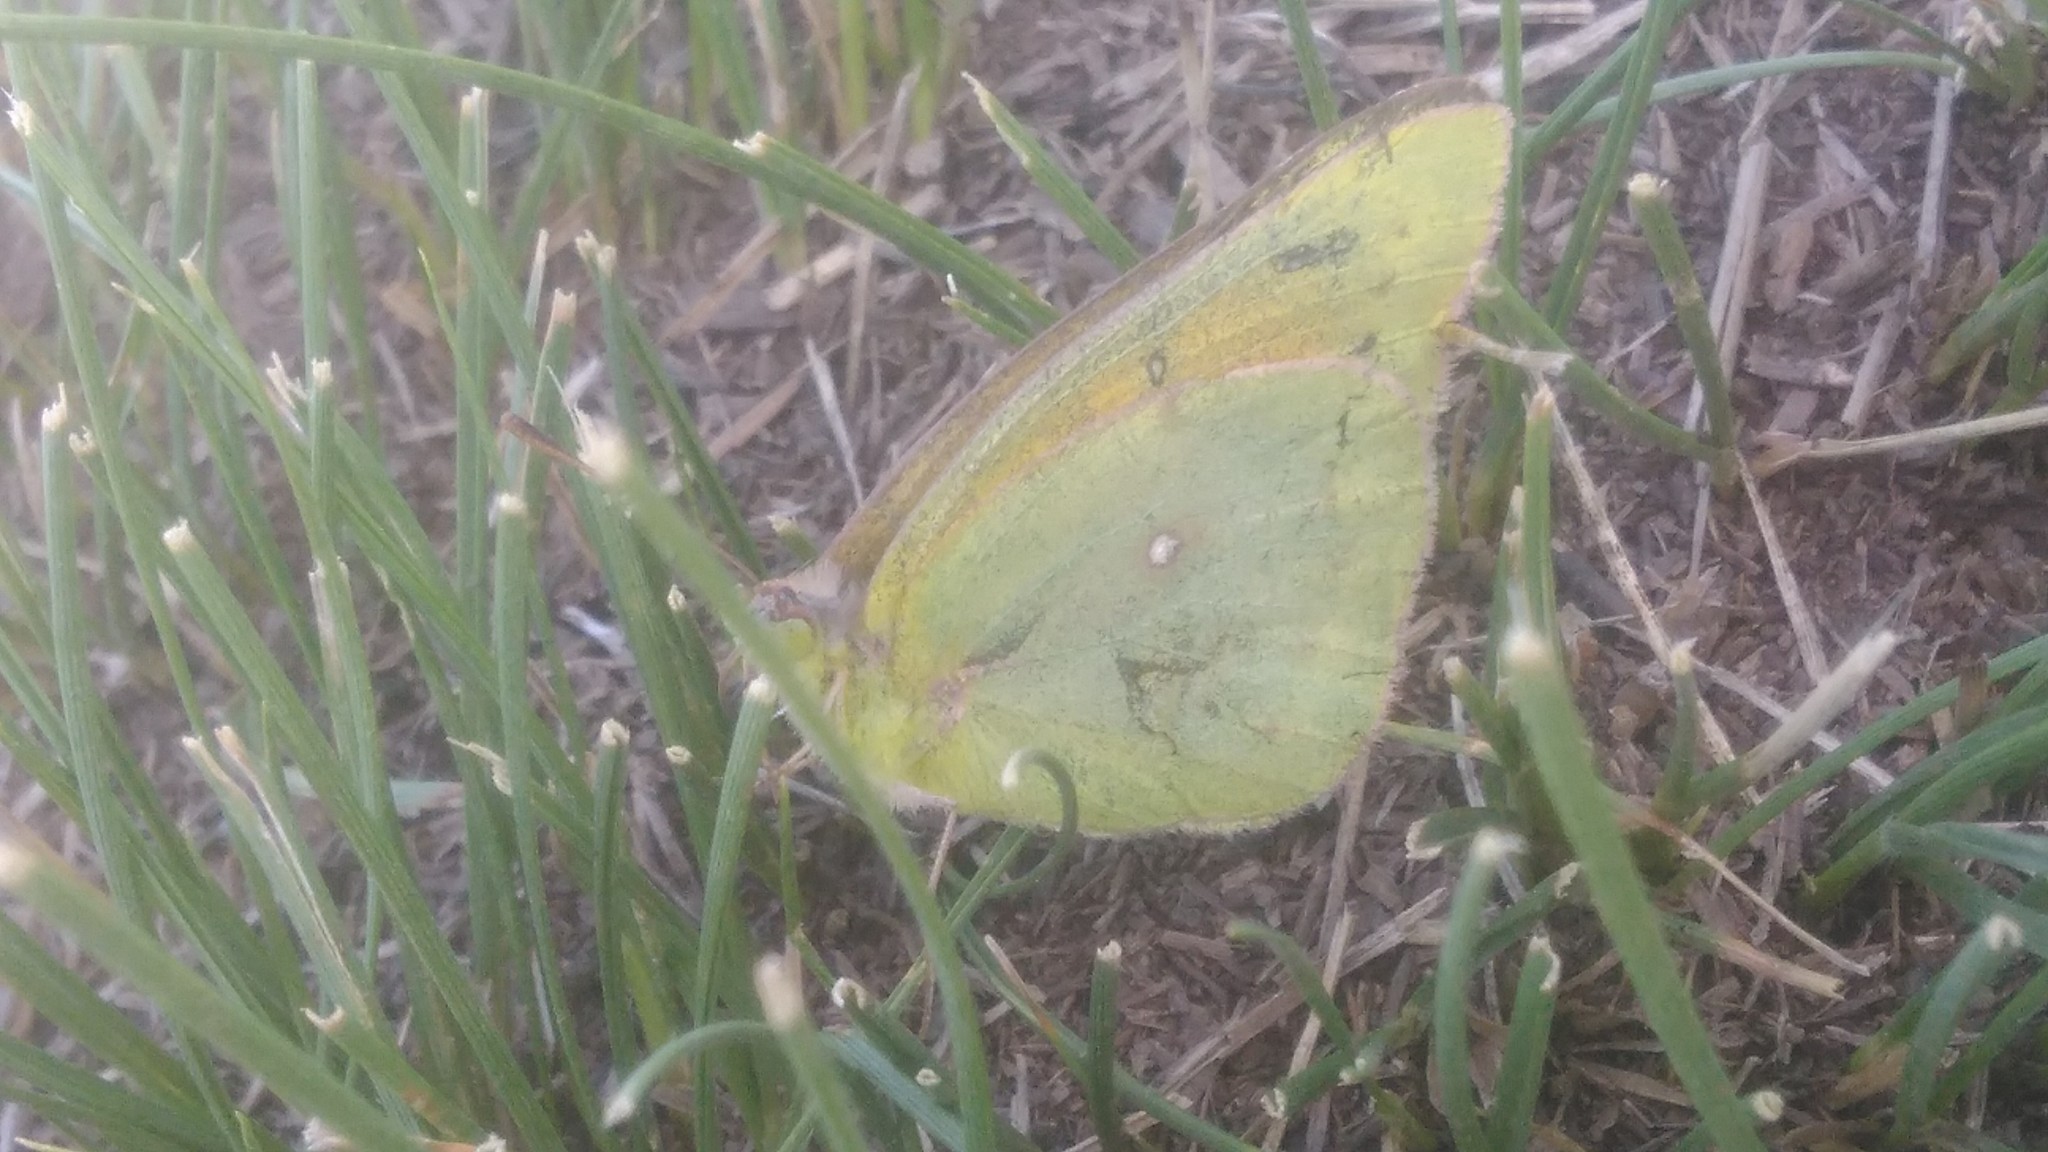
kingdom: Animalia
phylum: Arthropoda
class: Insecta
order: Lepidoptera
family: Pieridae
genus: Colias
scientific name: Colias lesbia
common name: Lesbia clouded yellow
